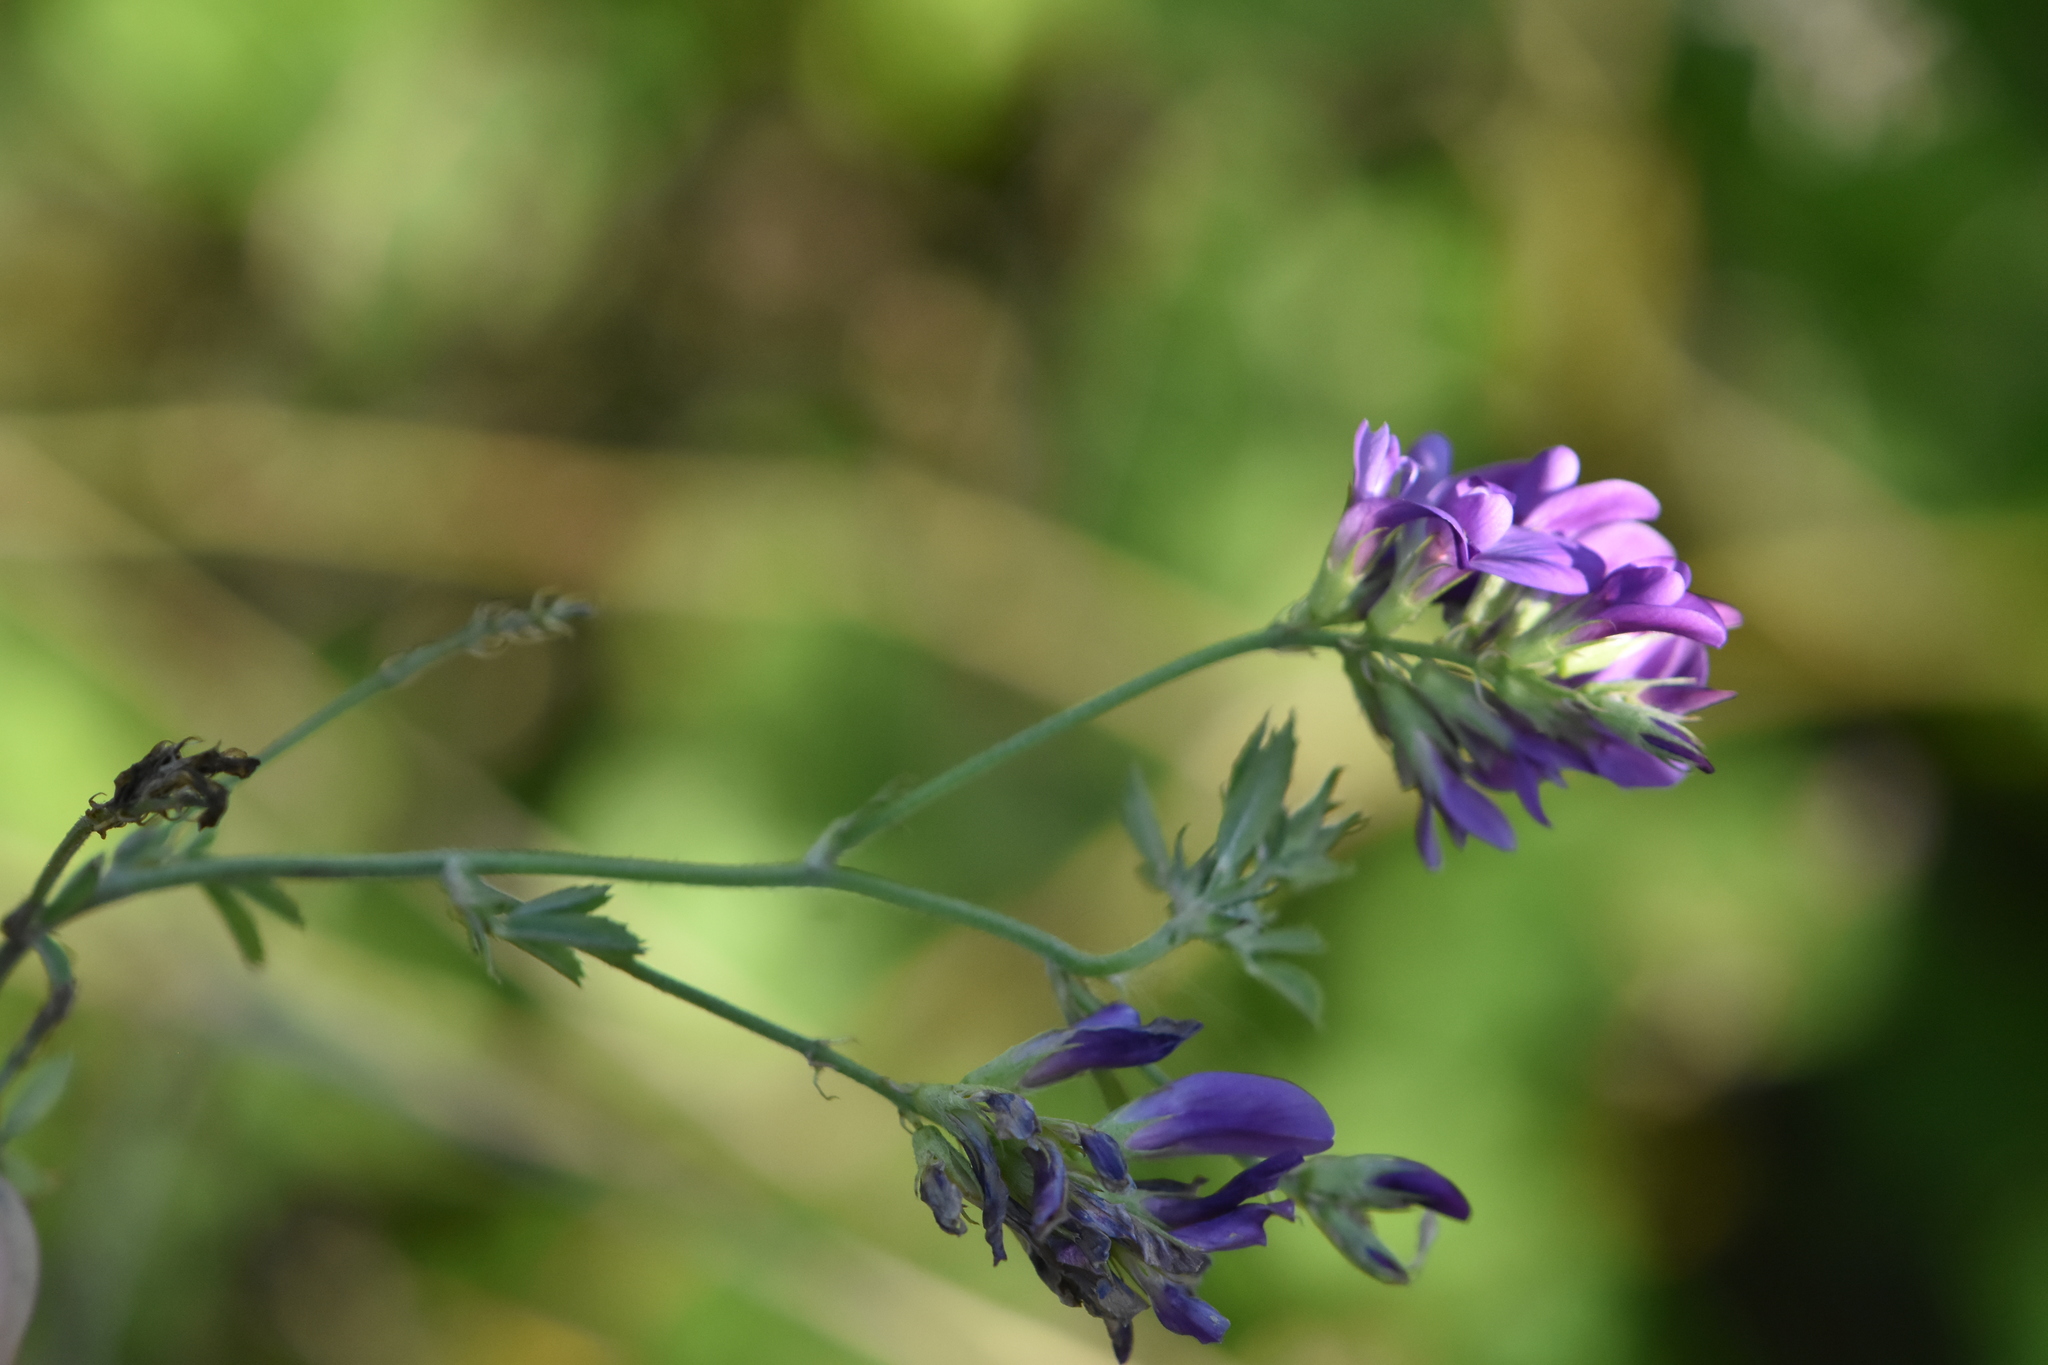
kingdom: Plantae
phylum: Tracheophyta
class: Magnoliopsida
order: Fabales
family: Fabaceae
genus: Medicago
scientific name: Medicago sativa
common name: Alfalfa
